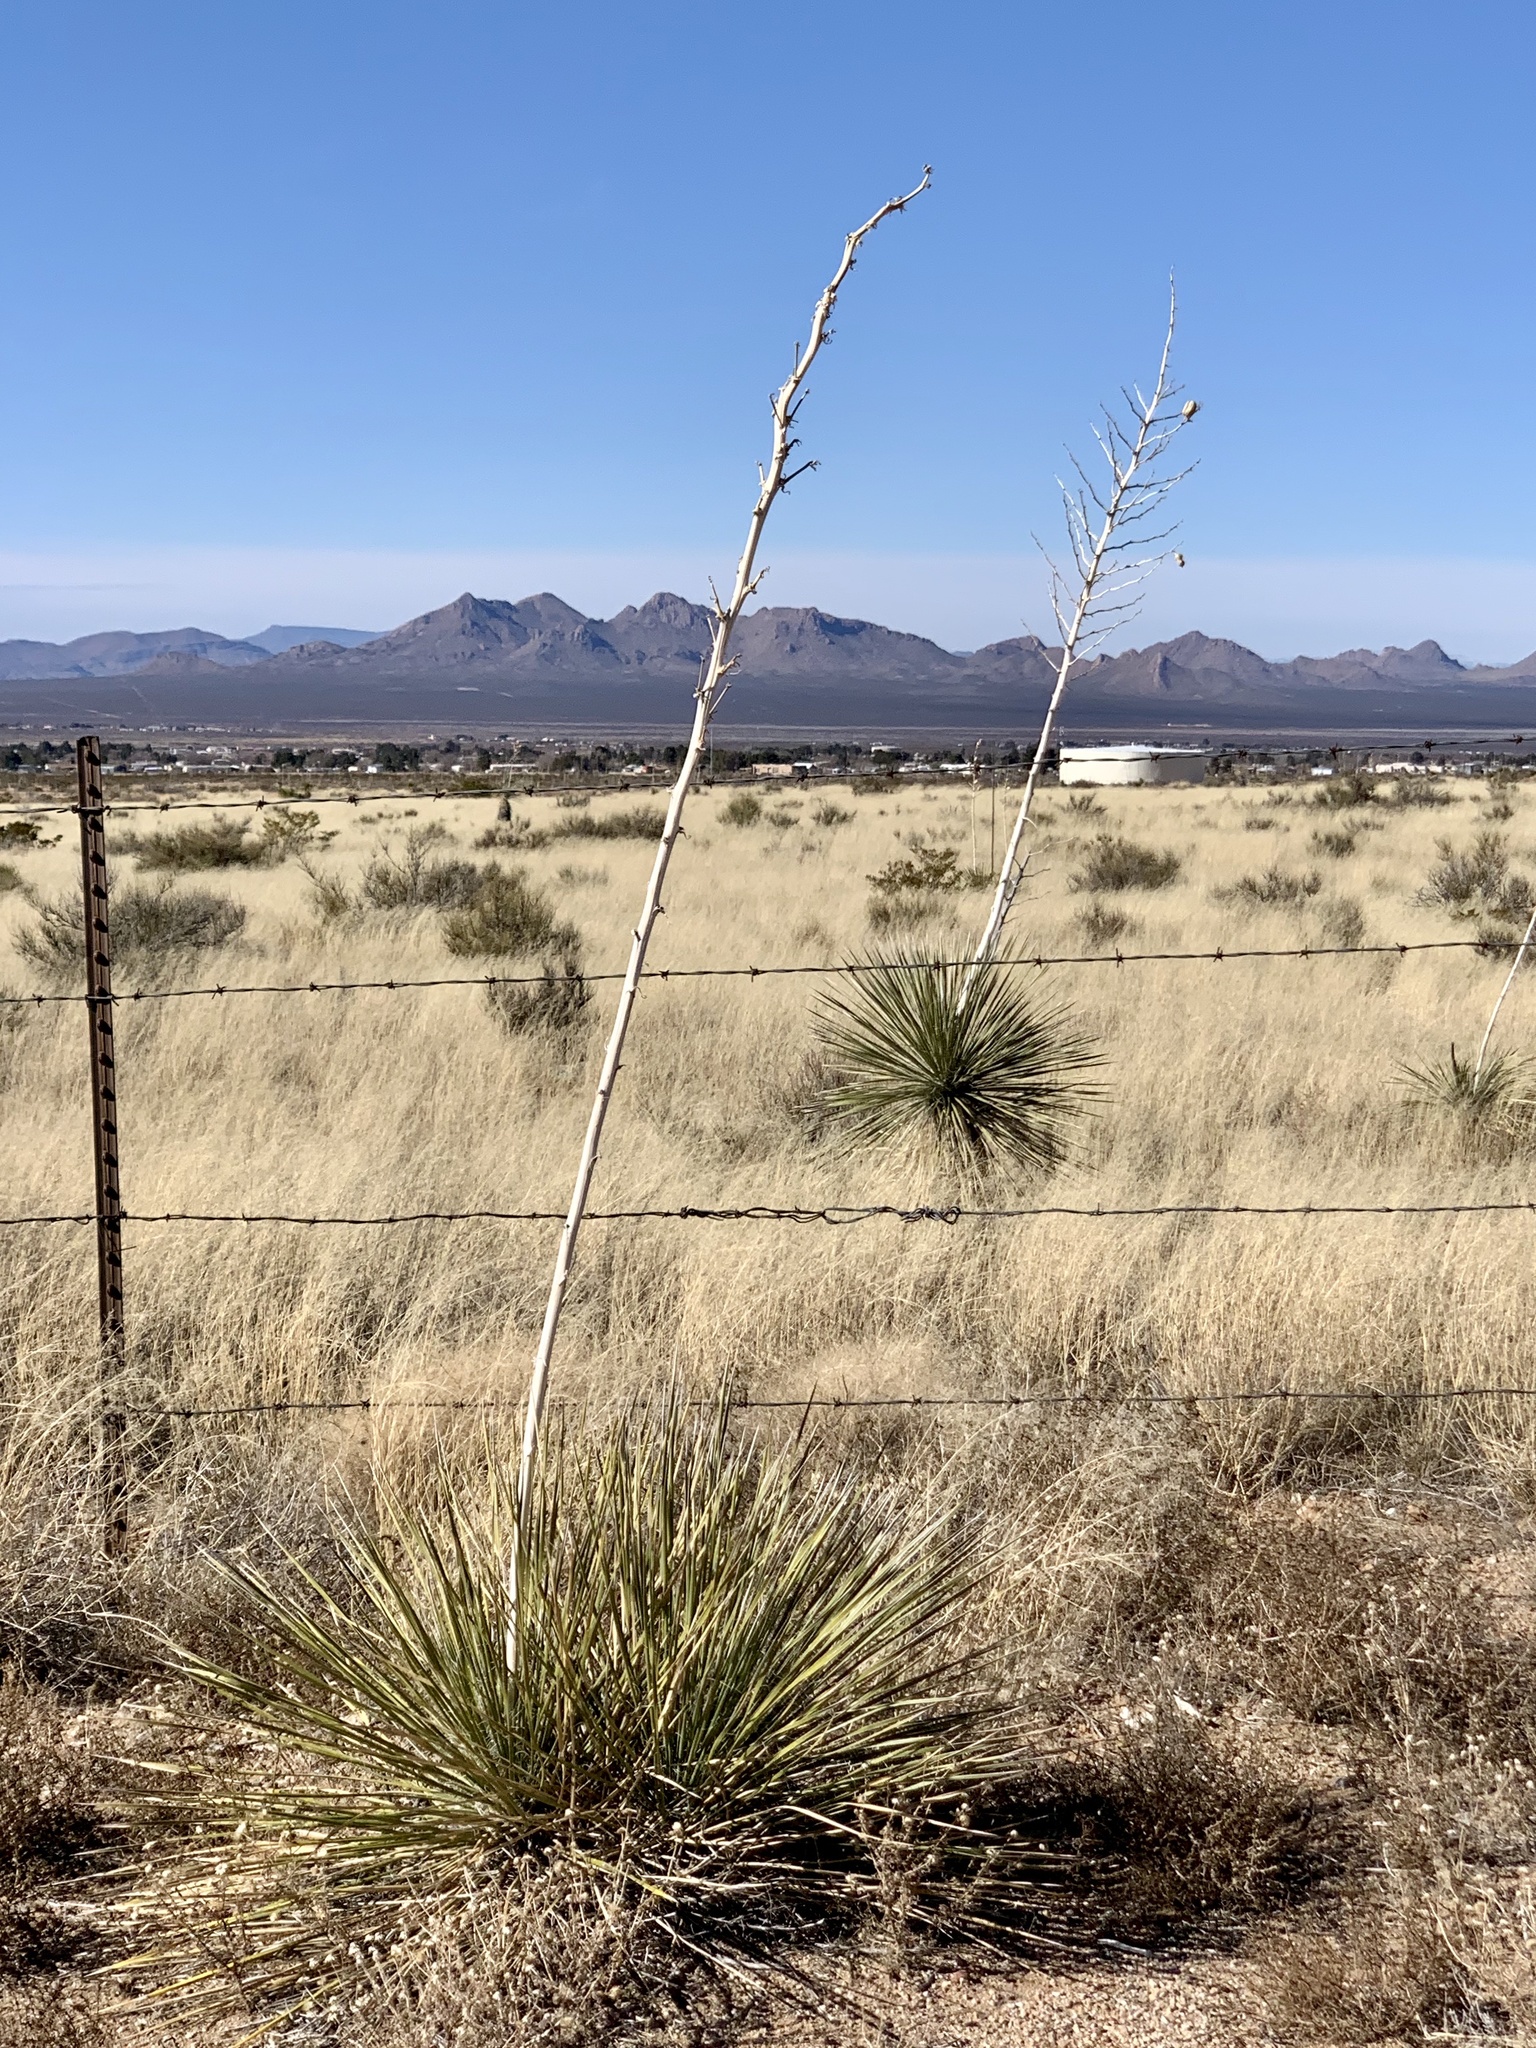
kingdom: Plantae
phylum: Tracheophyta
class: Liliopsida
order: Asparagales
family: Asparagaceae
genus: Yucca
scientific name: Yucca elata
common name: Palmella
